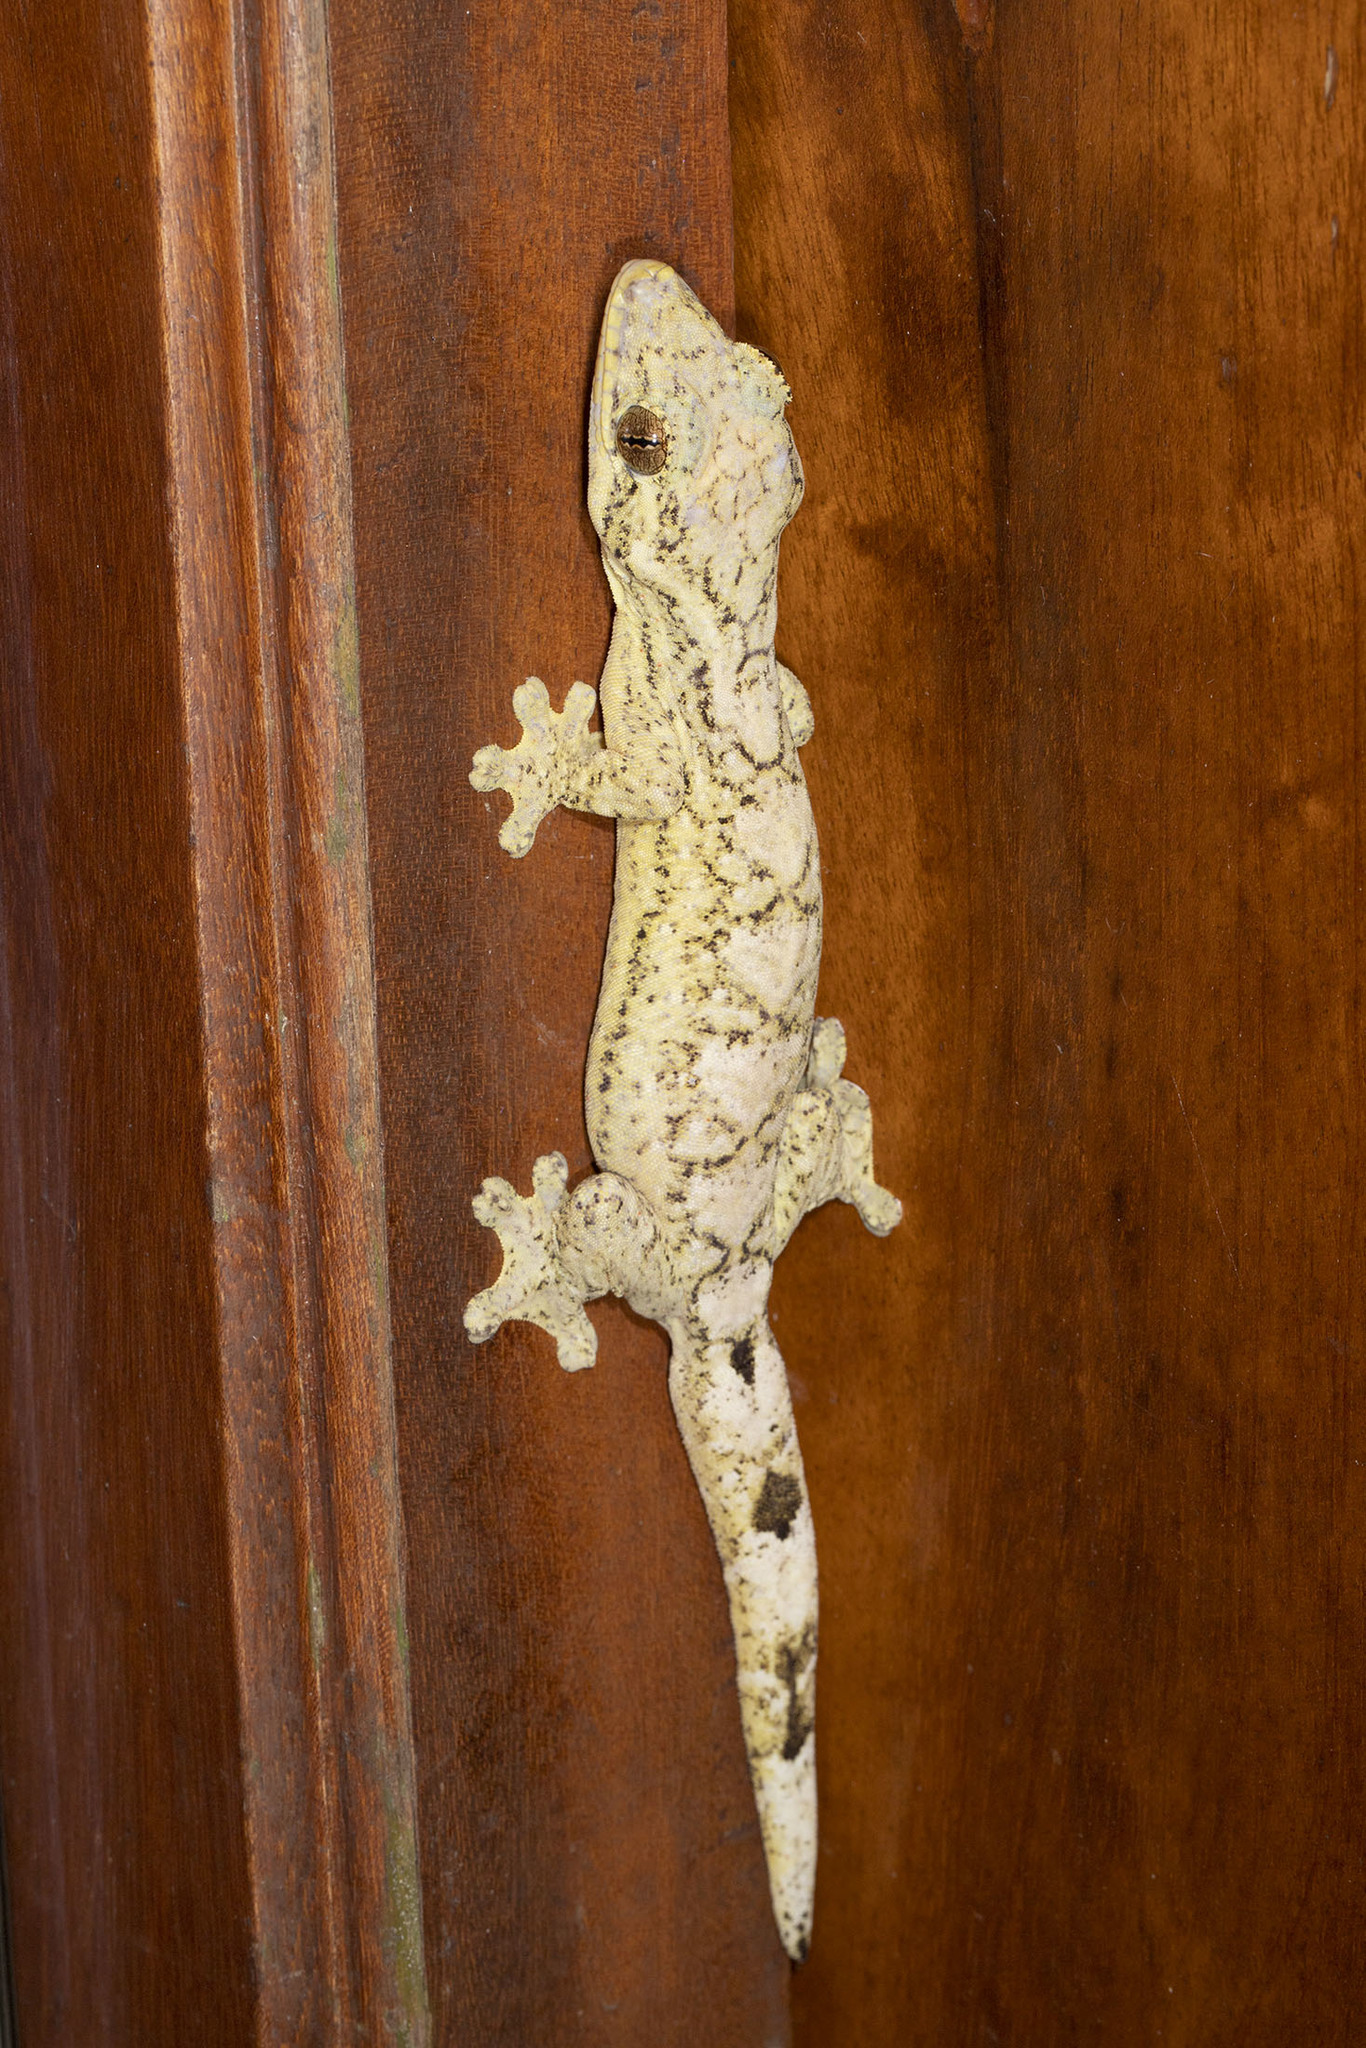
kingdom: Animalia
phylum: Chordata
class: Squamata
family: Phyllodactylidae
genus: Thecadactylus
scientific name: Thecadactylus solimoensis
